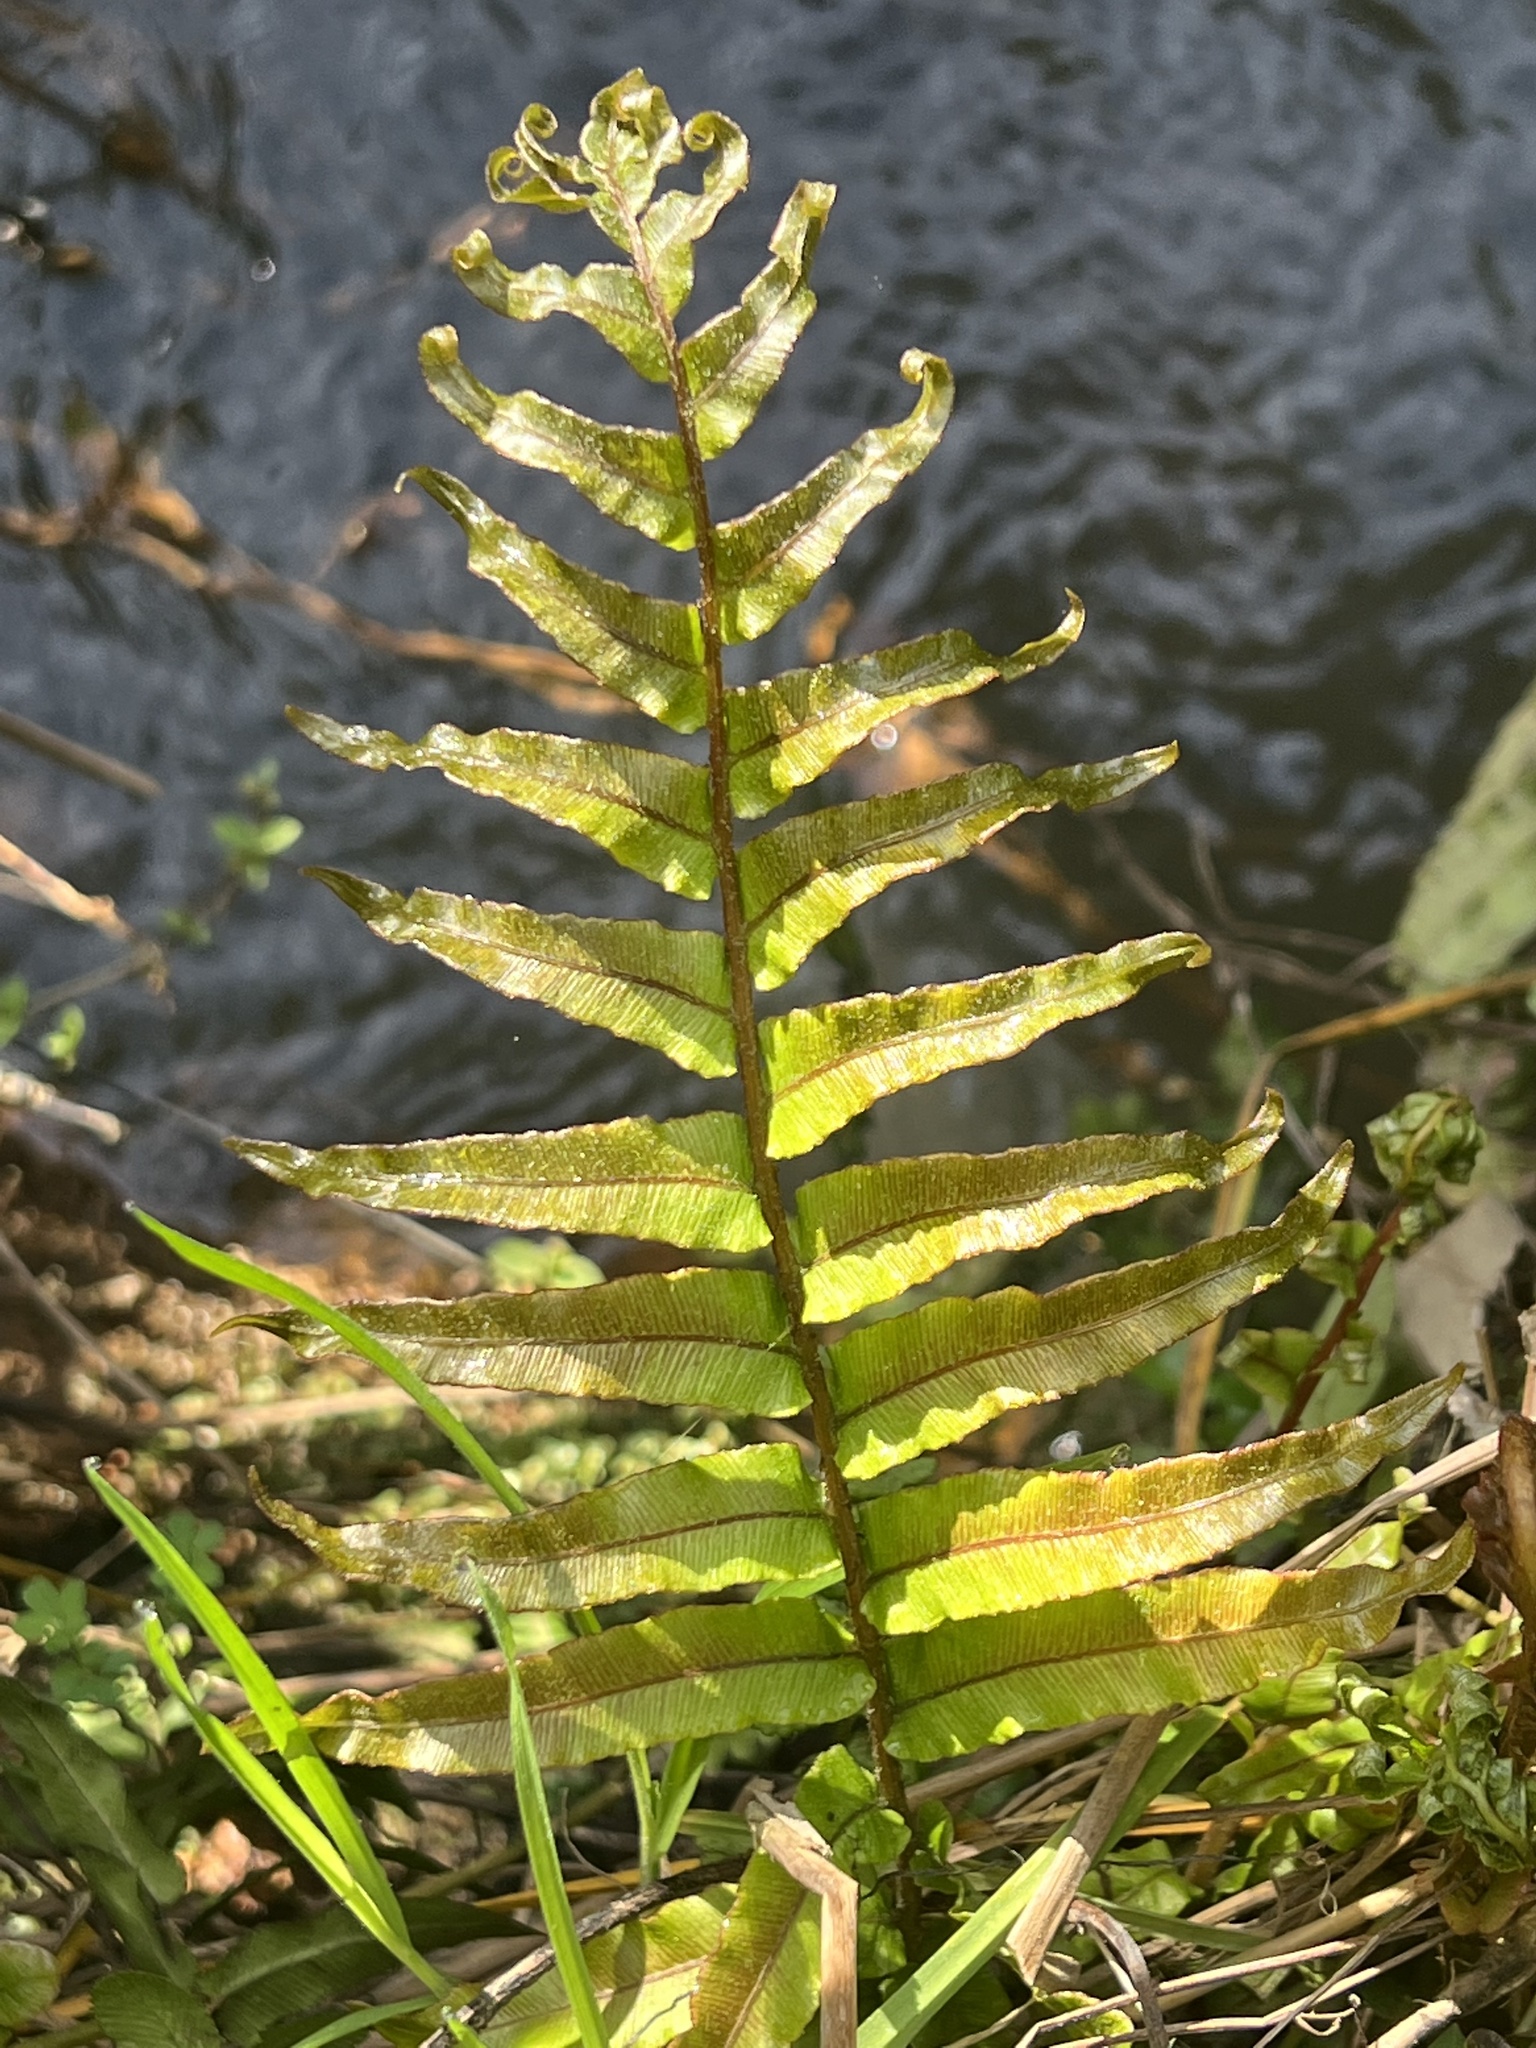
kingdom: Plantae
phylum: Tracheophyta
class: Polypodiopsida
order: Polypodiales
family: Blechnaceae
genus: Parablechnum
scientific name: Parablechnum minus
